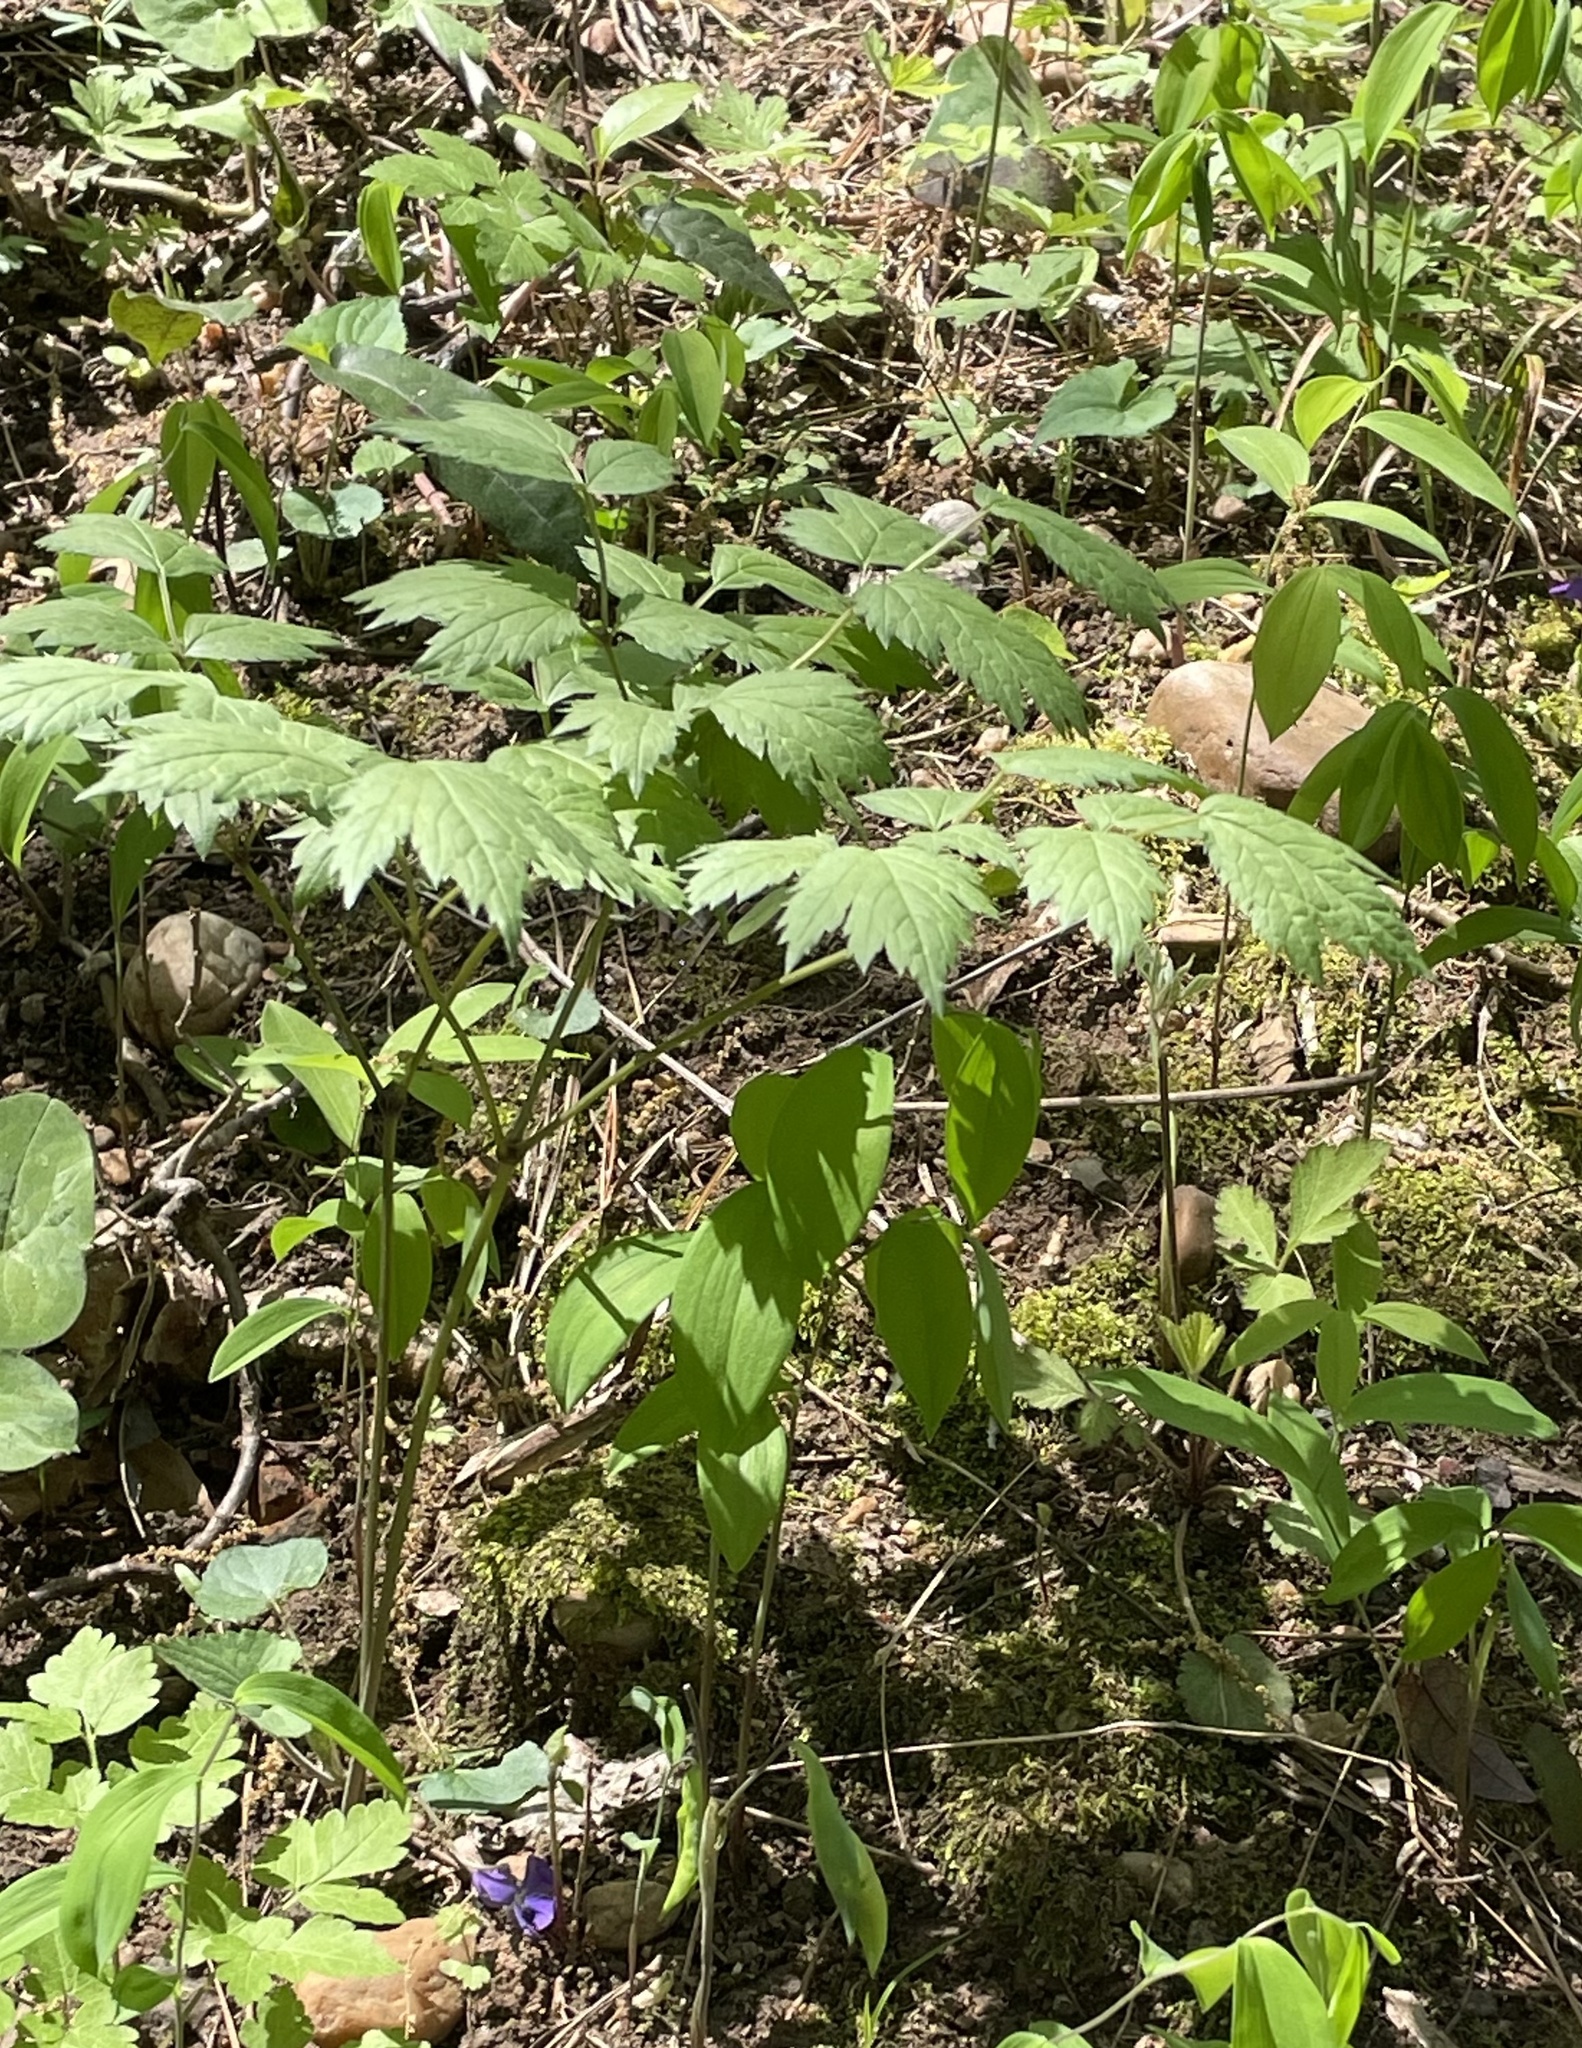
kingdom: Plantae
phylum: Tracheophyta
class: Magnoliopsida
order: Ranunculales
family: Ranunculaceae
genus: Actaea
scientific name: Actaea racemosa
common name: Black cohosh
